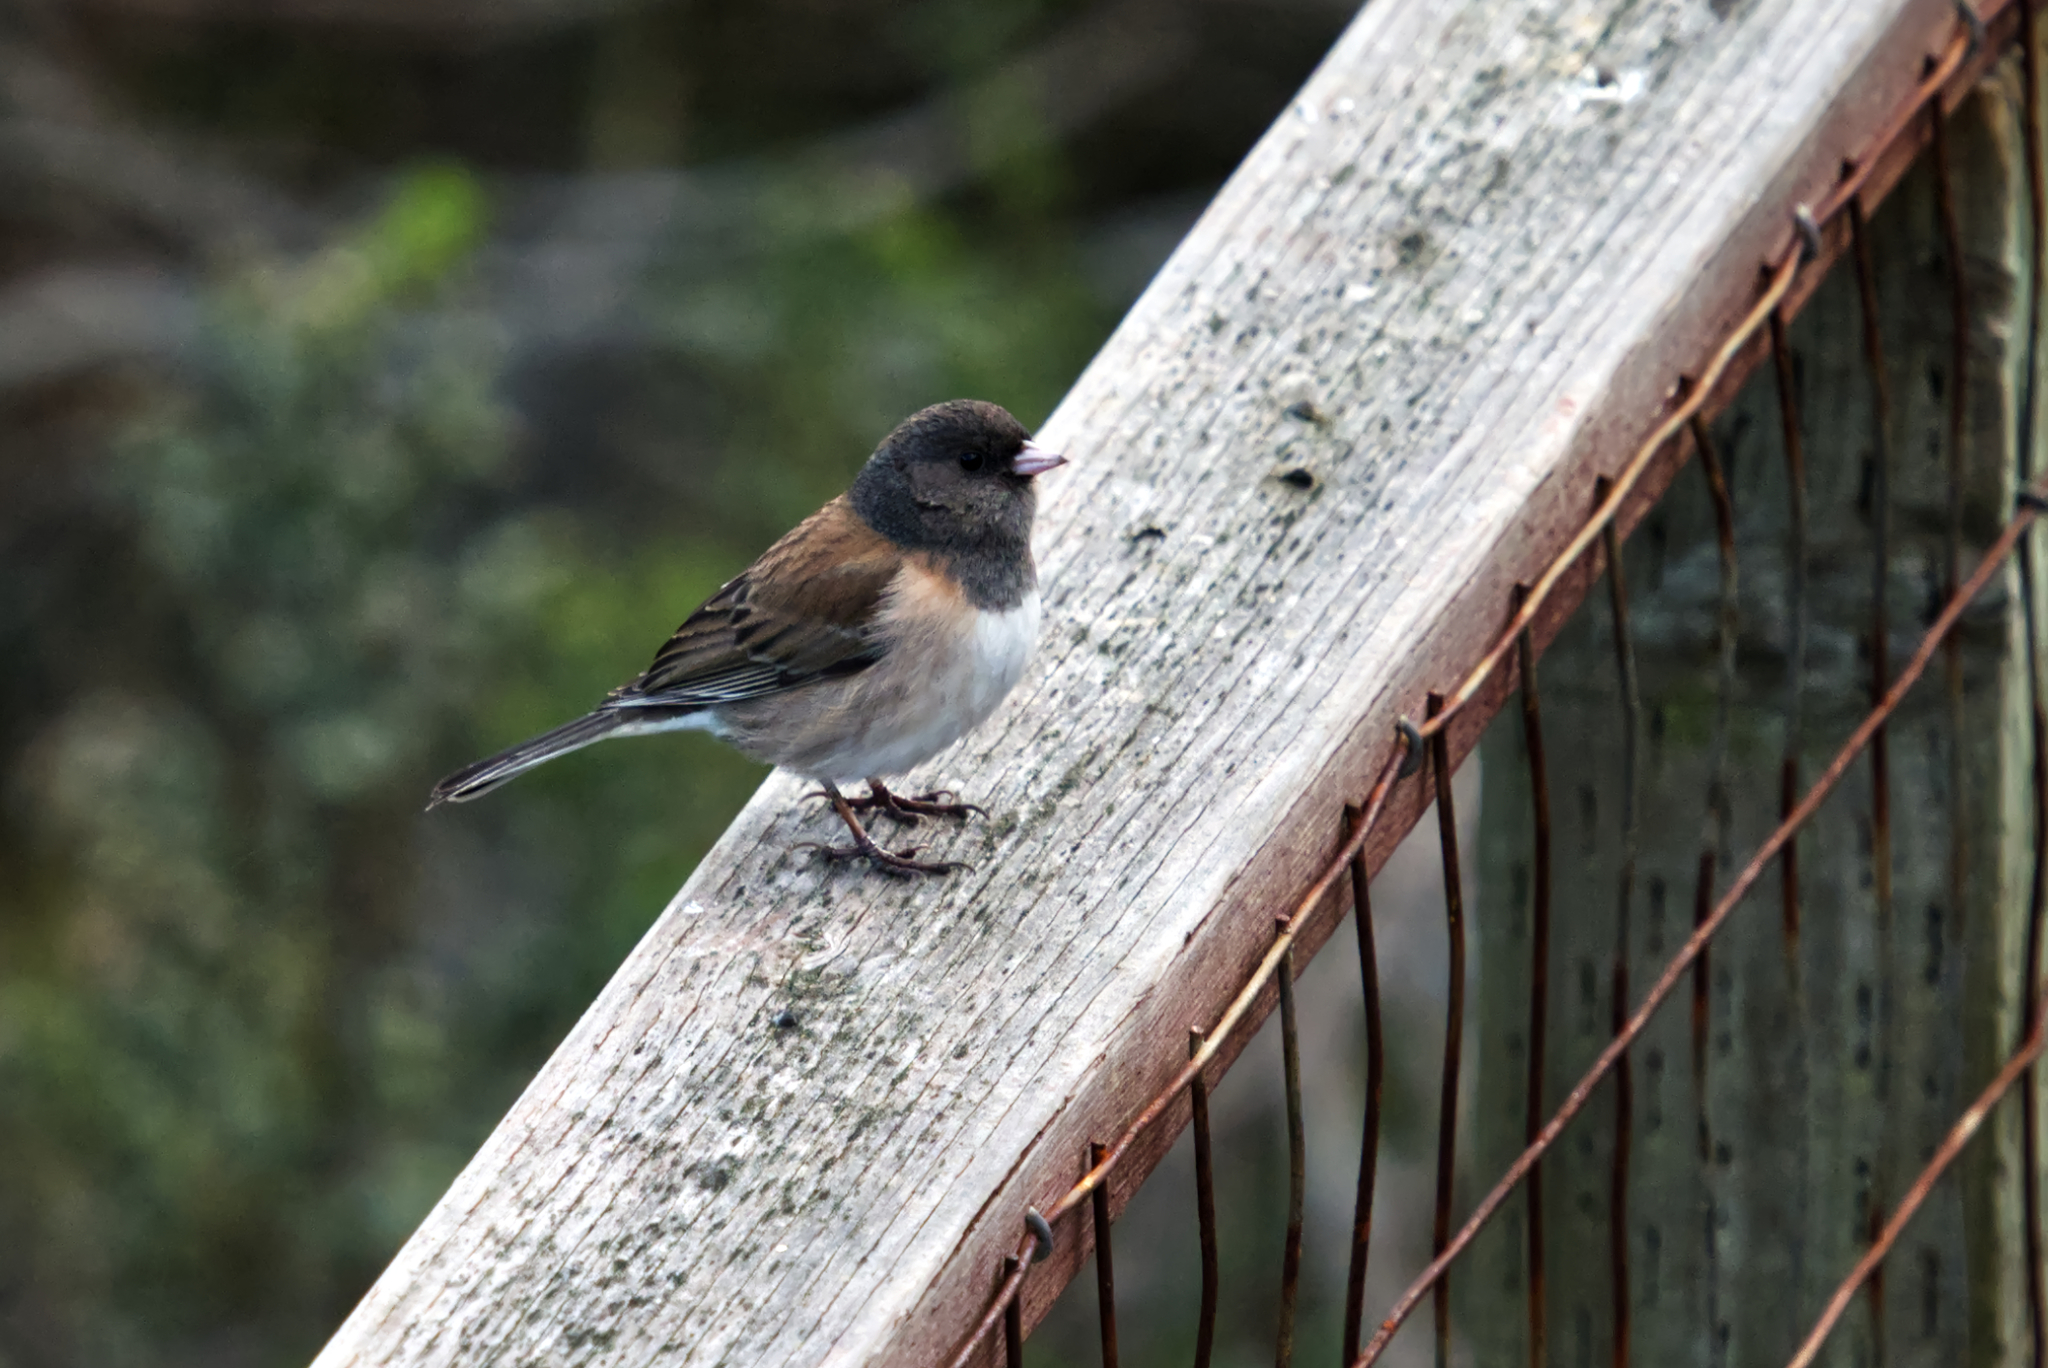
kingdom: Animalia
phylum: Chordata
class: Aves
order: Passeriformes
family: Passerellidae
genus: Junco
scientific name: Junco hyemalis
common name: Dark-eyed junco
